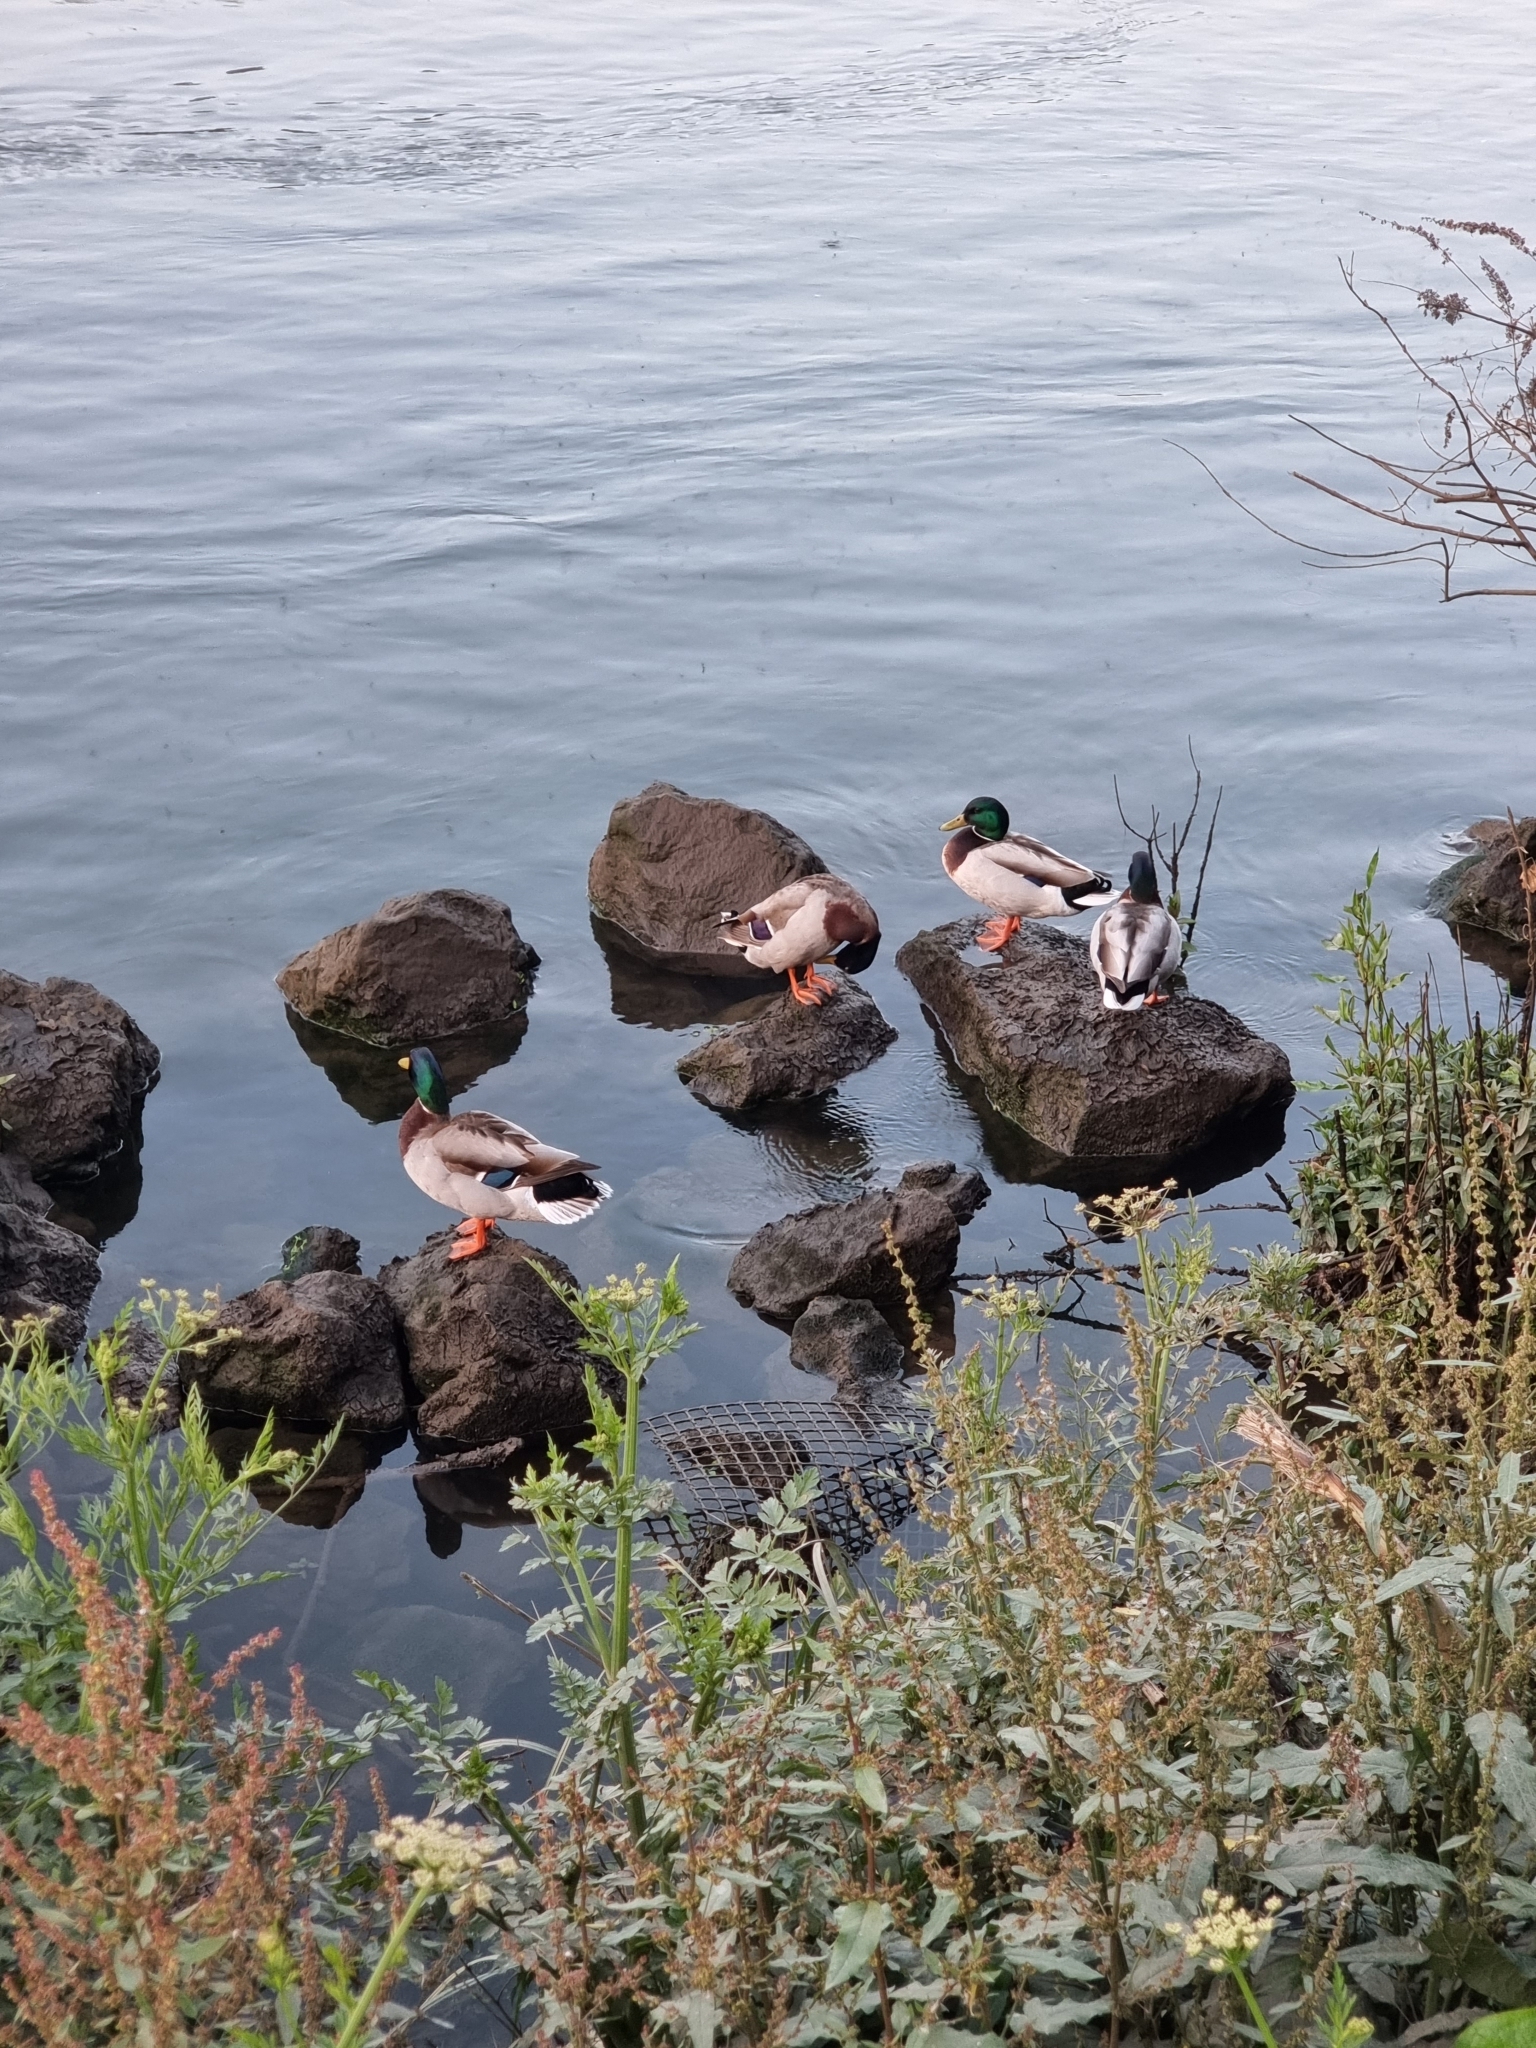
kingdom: Animalia
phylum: Chordata
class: Aves
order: Anseriformes
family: Anatidae
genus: Anas
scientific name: Anas platyrhynchos
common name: Mallard
